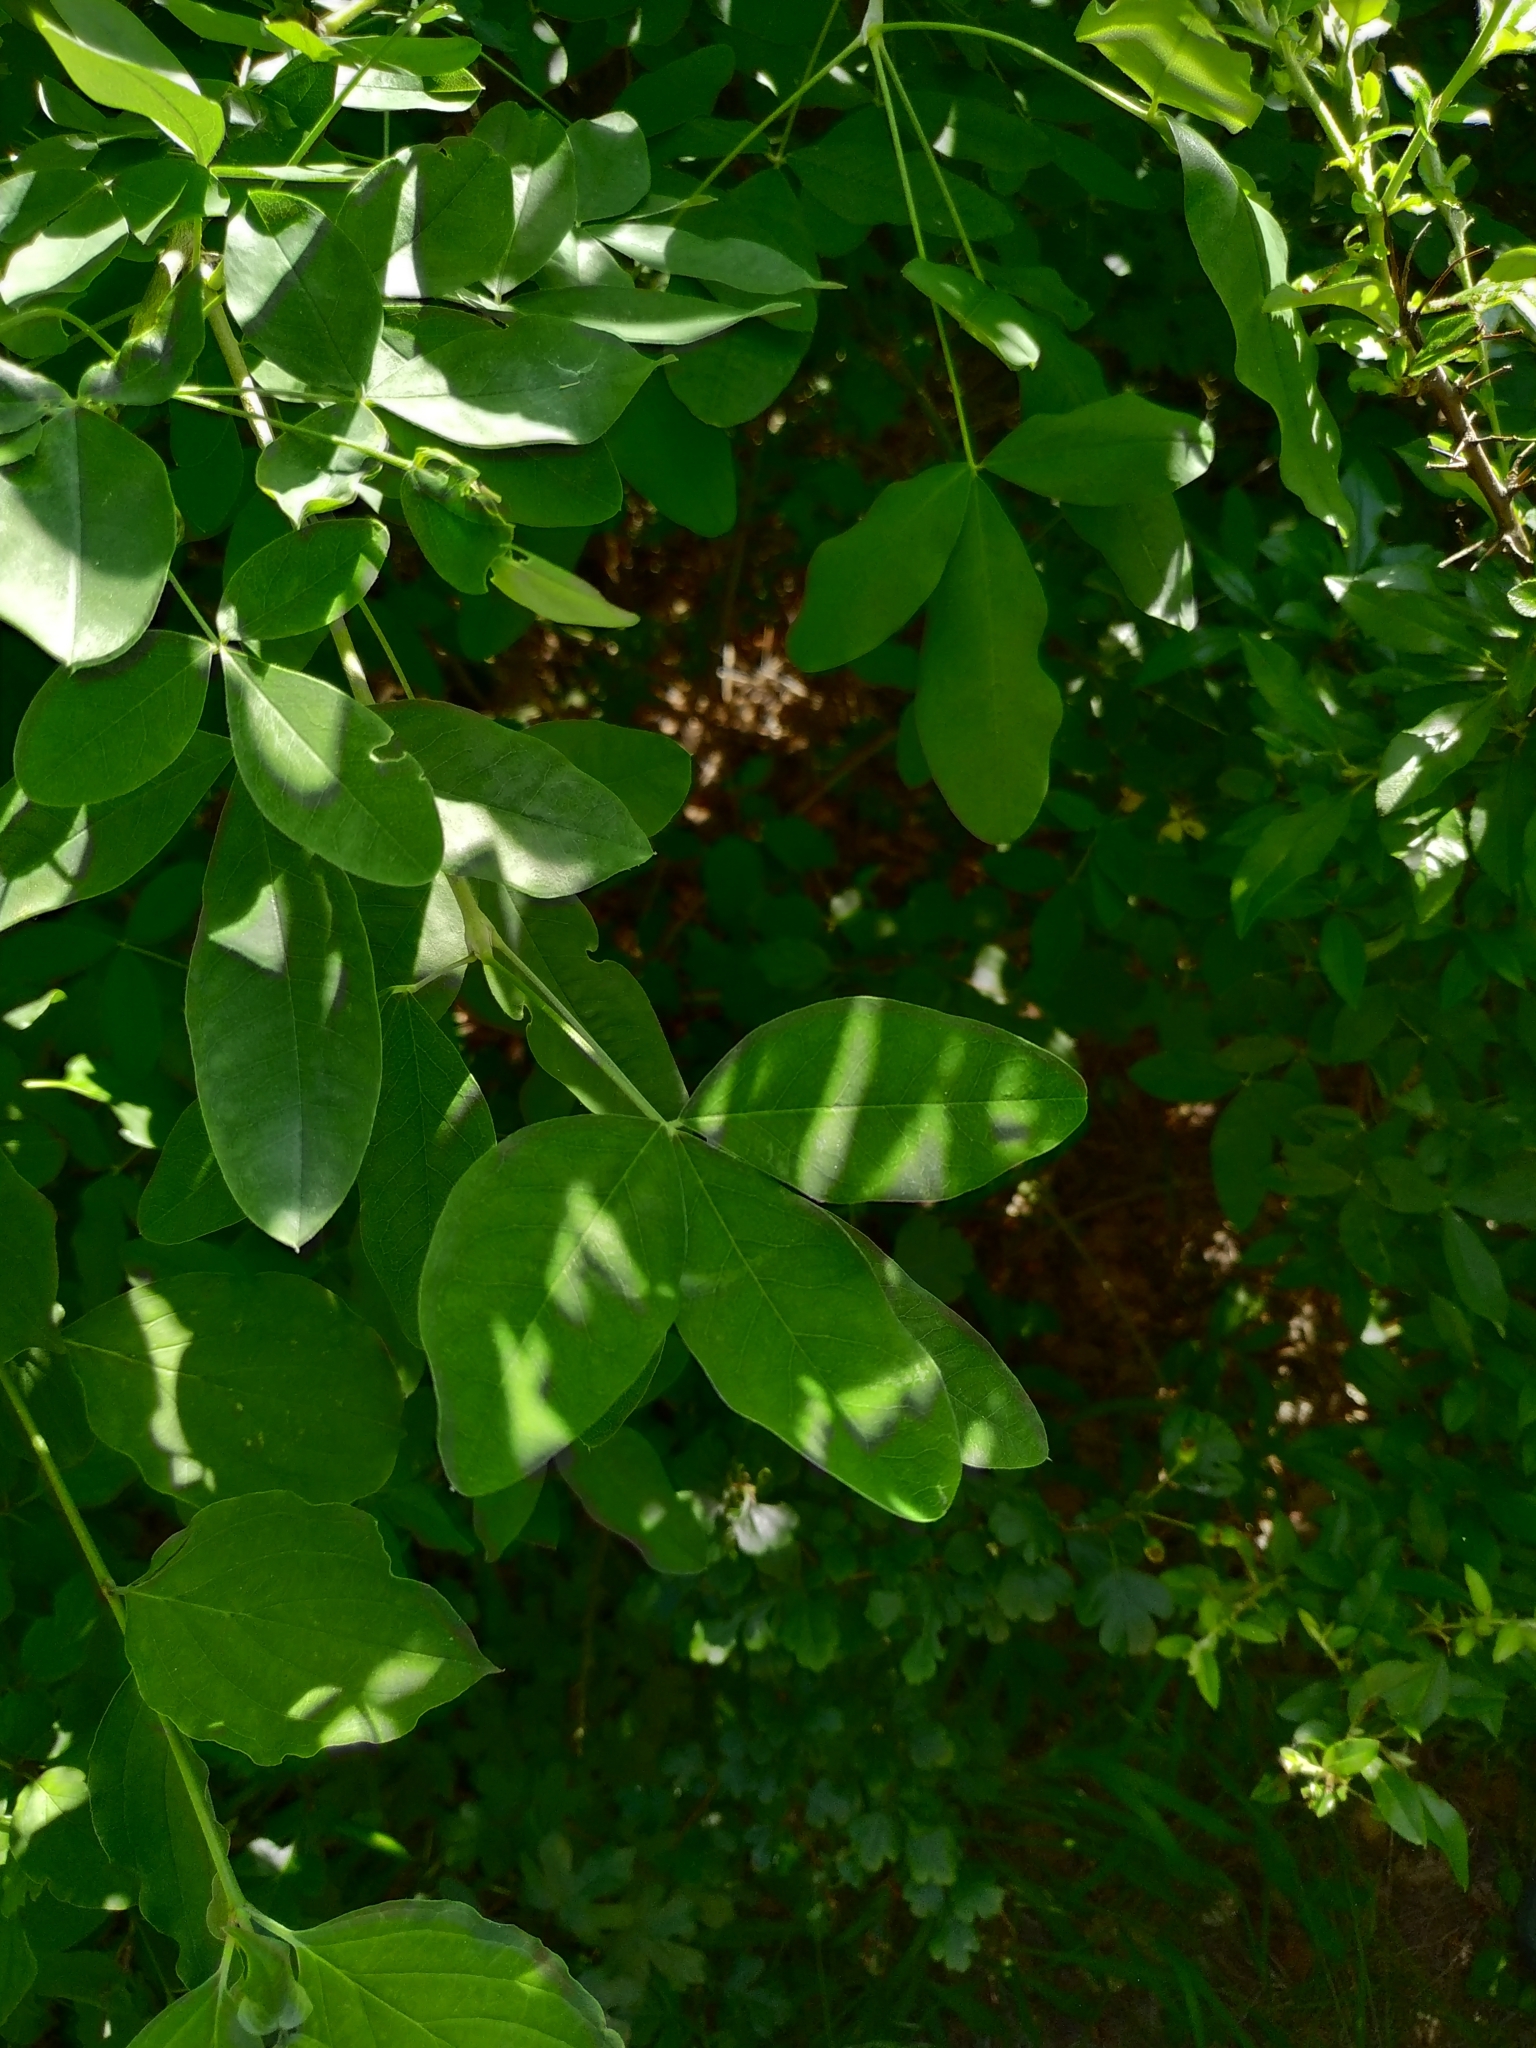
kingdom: Plantae
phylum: Tracheophyta
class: Magnoliopsida
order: Fabales
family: Fabaceae
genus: Laburnum
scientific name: Laburnum anagyroides
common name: Laburnum
